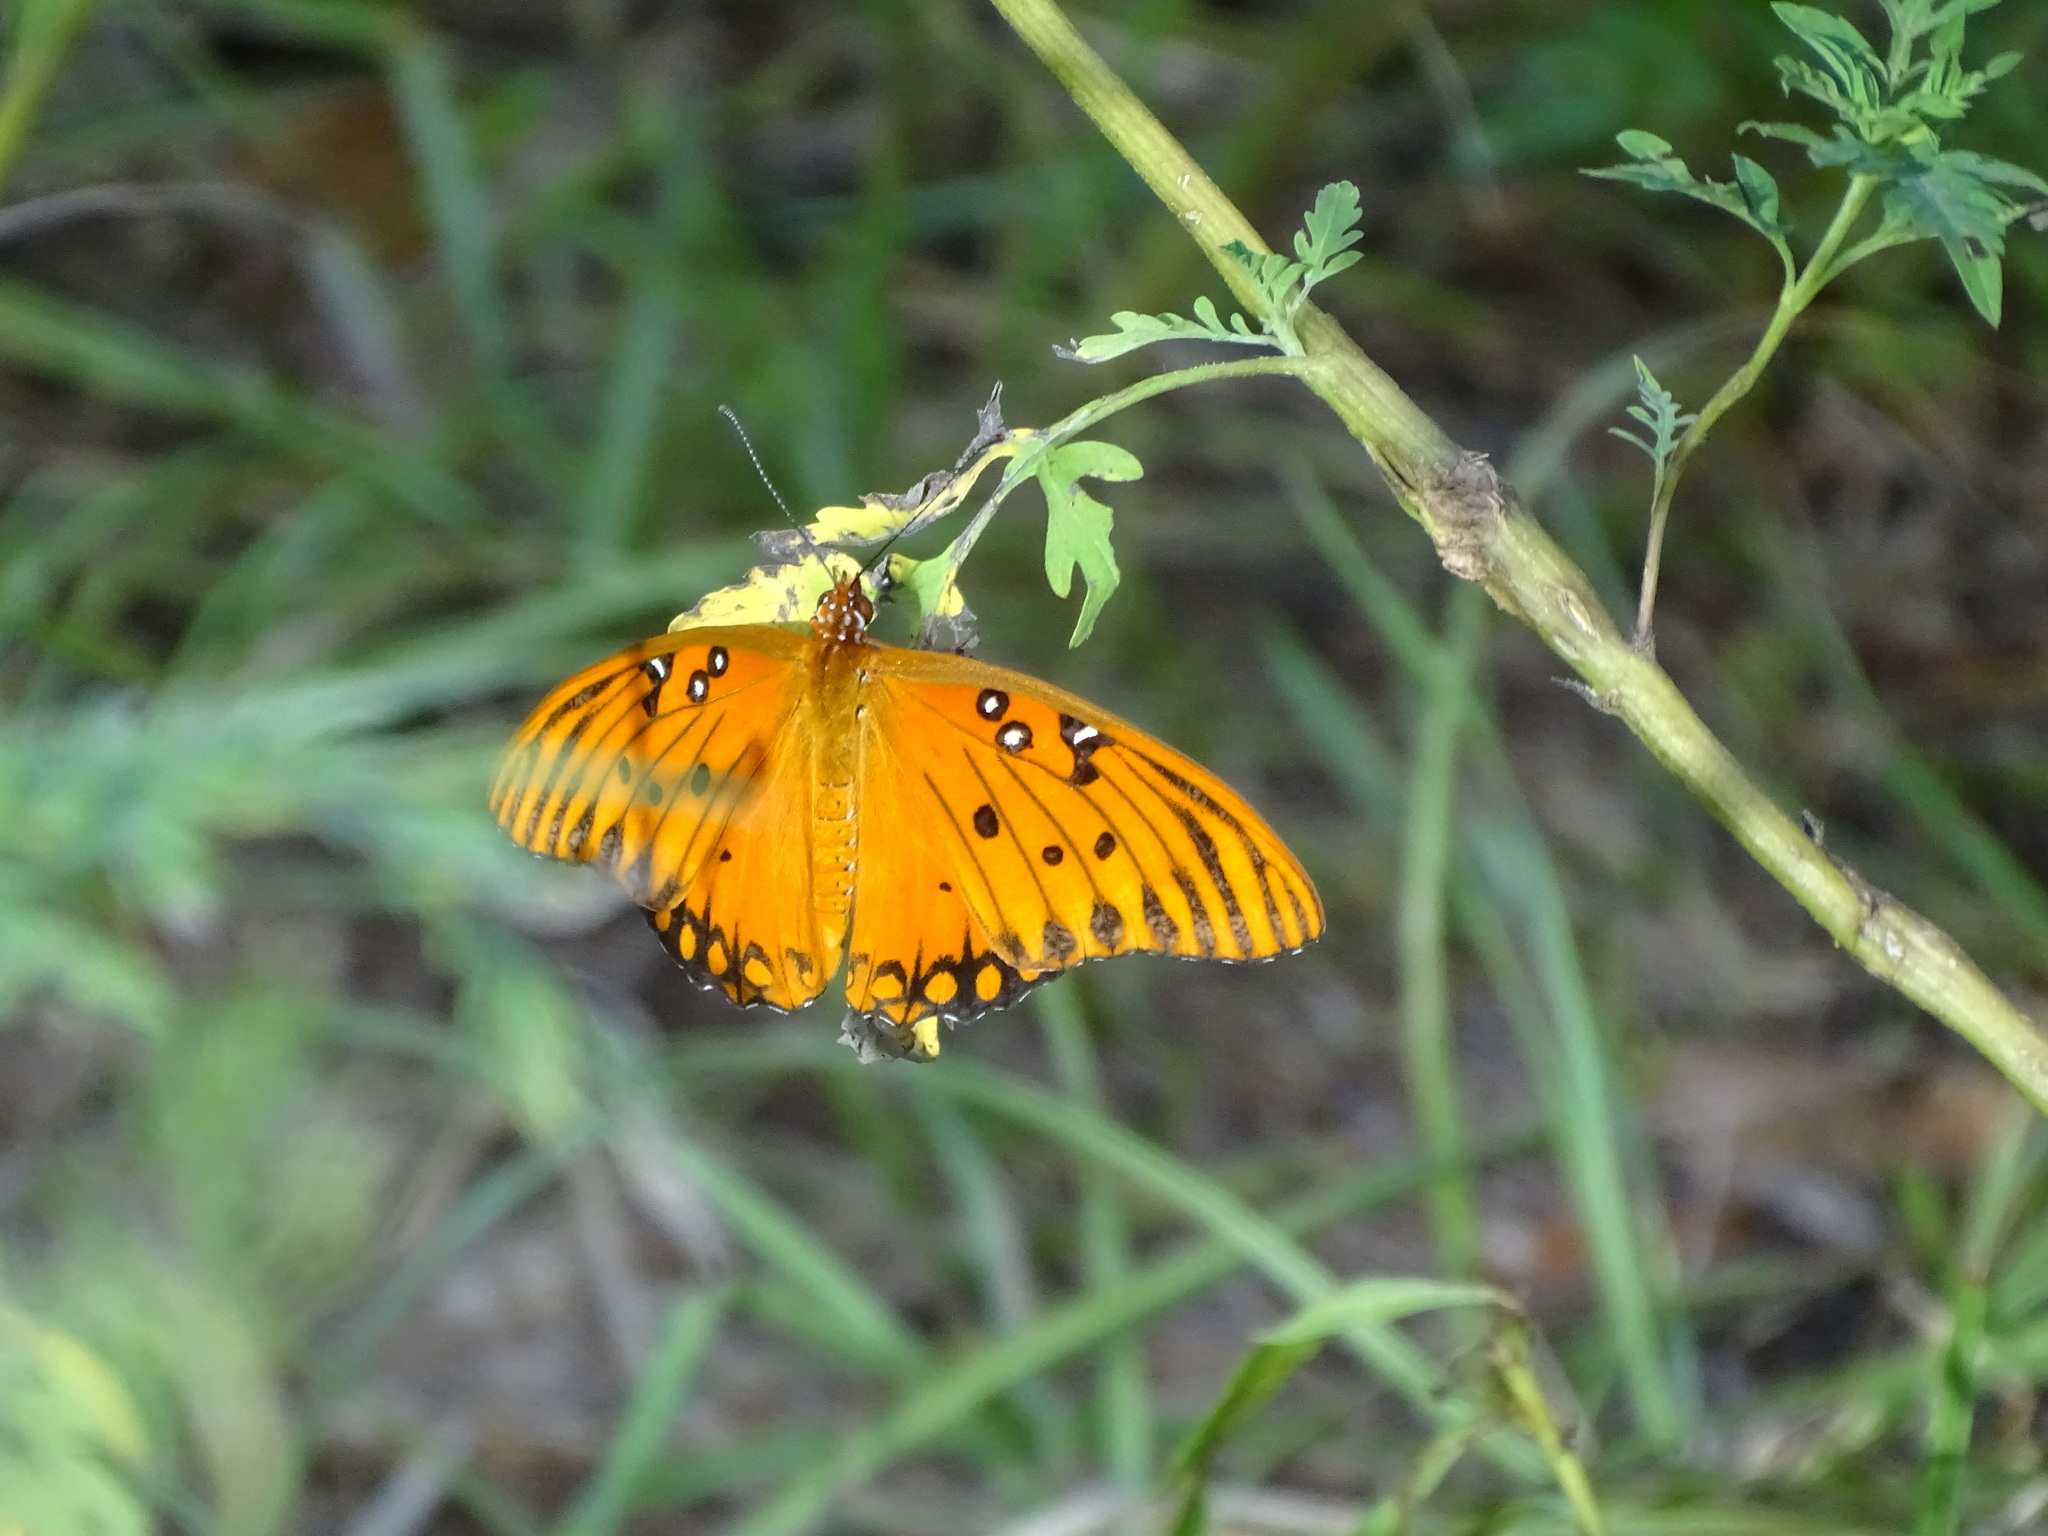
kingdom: Animalia
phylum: Arthropoda
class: Insecta
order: Lepidoptera
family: Nymphalidae
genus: Dione
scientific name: Dione vanillae
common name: Gulf fritillary
